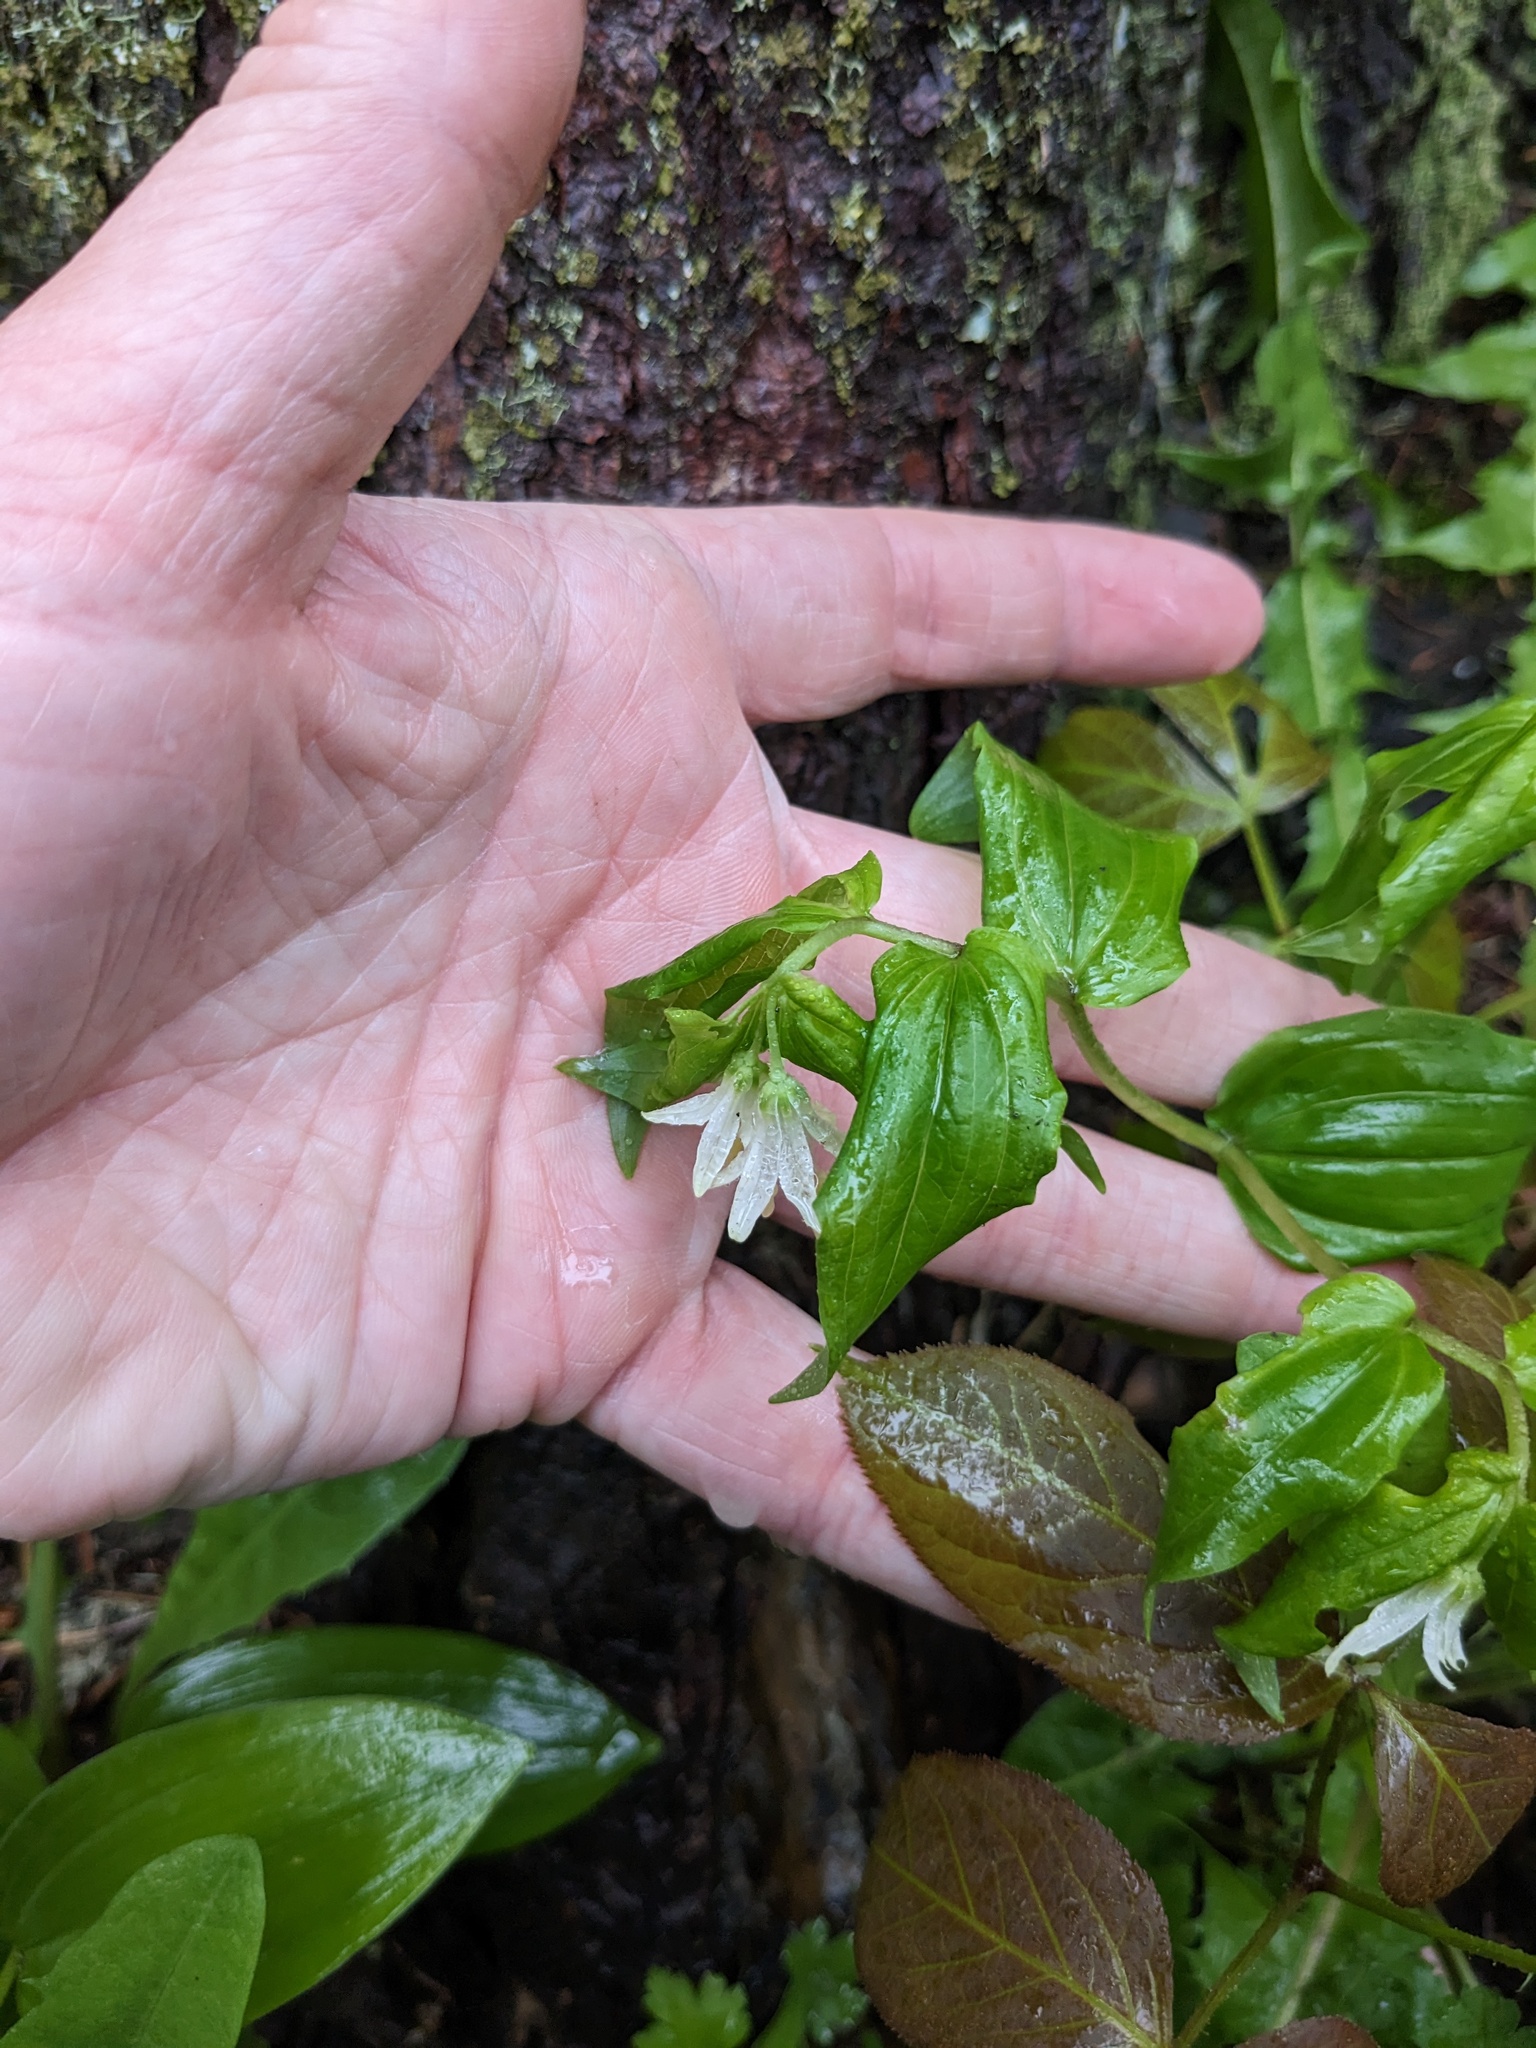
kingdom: Plantae
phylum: Tracheophyta
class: Liliopsida
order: Liliales
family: Liliaceae
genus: Prosartes
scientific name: Prosartes trachycarpa
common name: Rough-fruit fairy-bells
